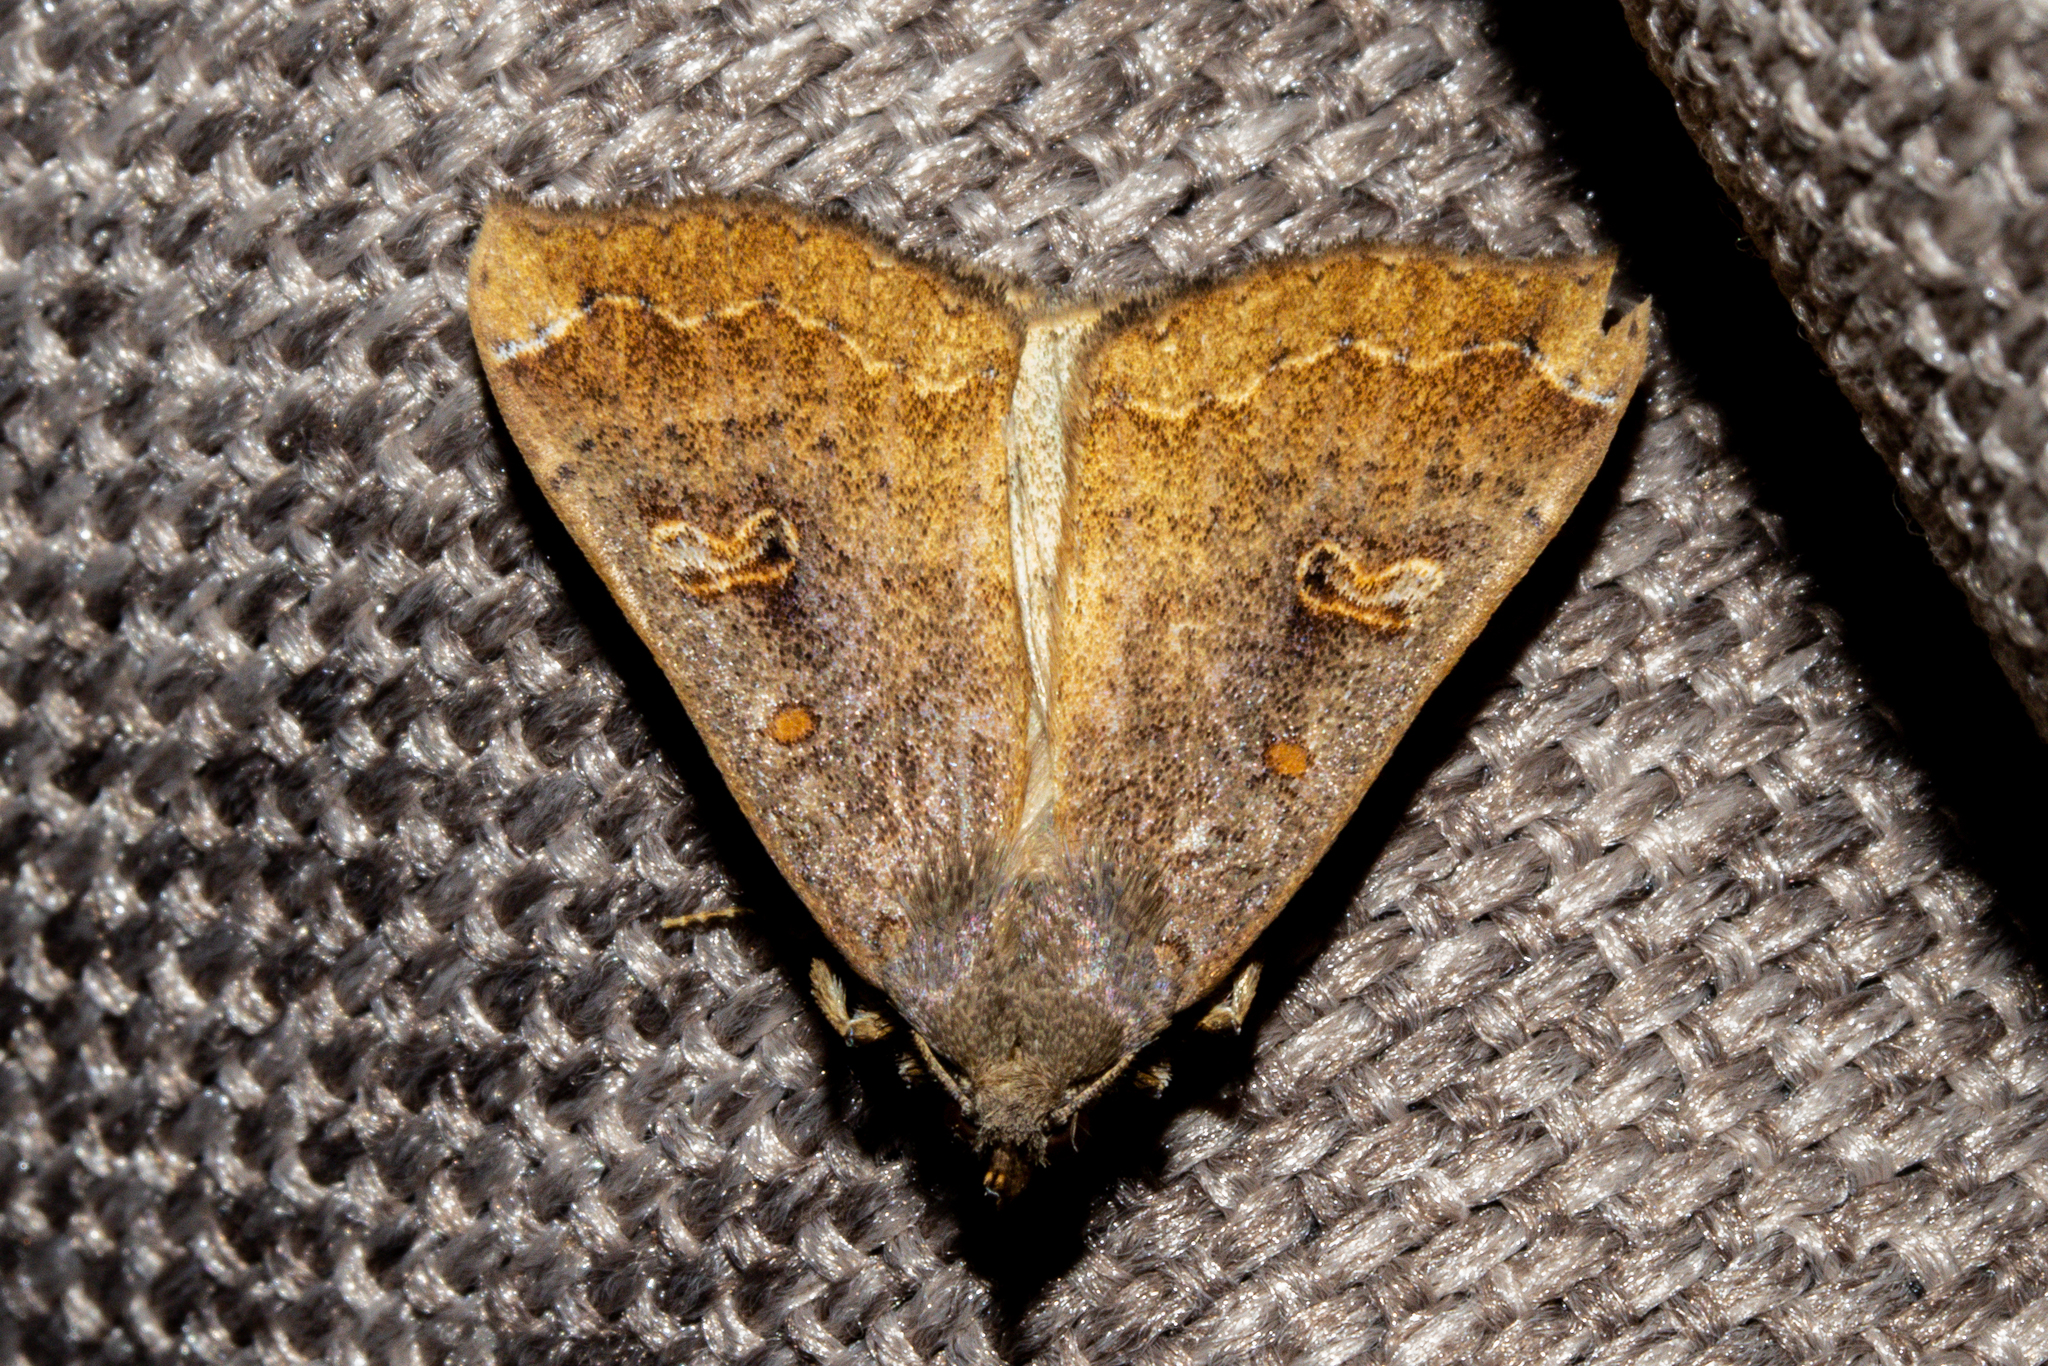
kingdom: Animalia
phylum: Arthropoda
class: Insecta
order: Lepidoptera
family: Erebidae
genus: Rhapsa
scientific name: Rhapsa scotosialis
